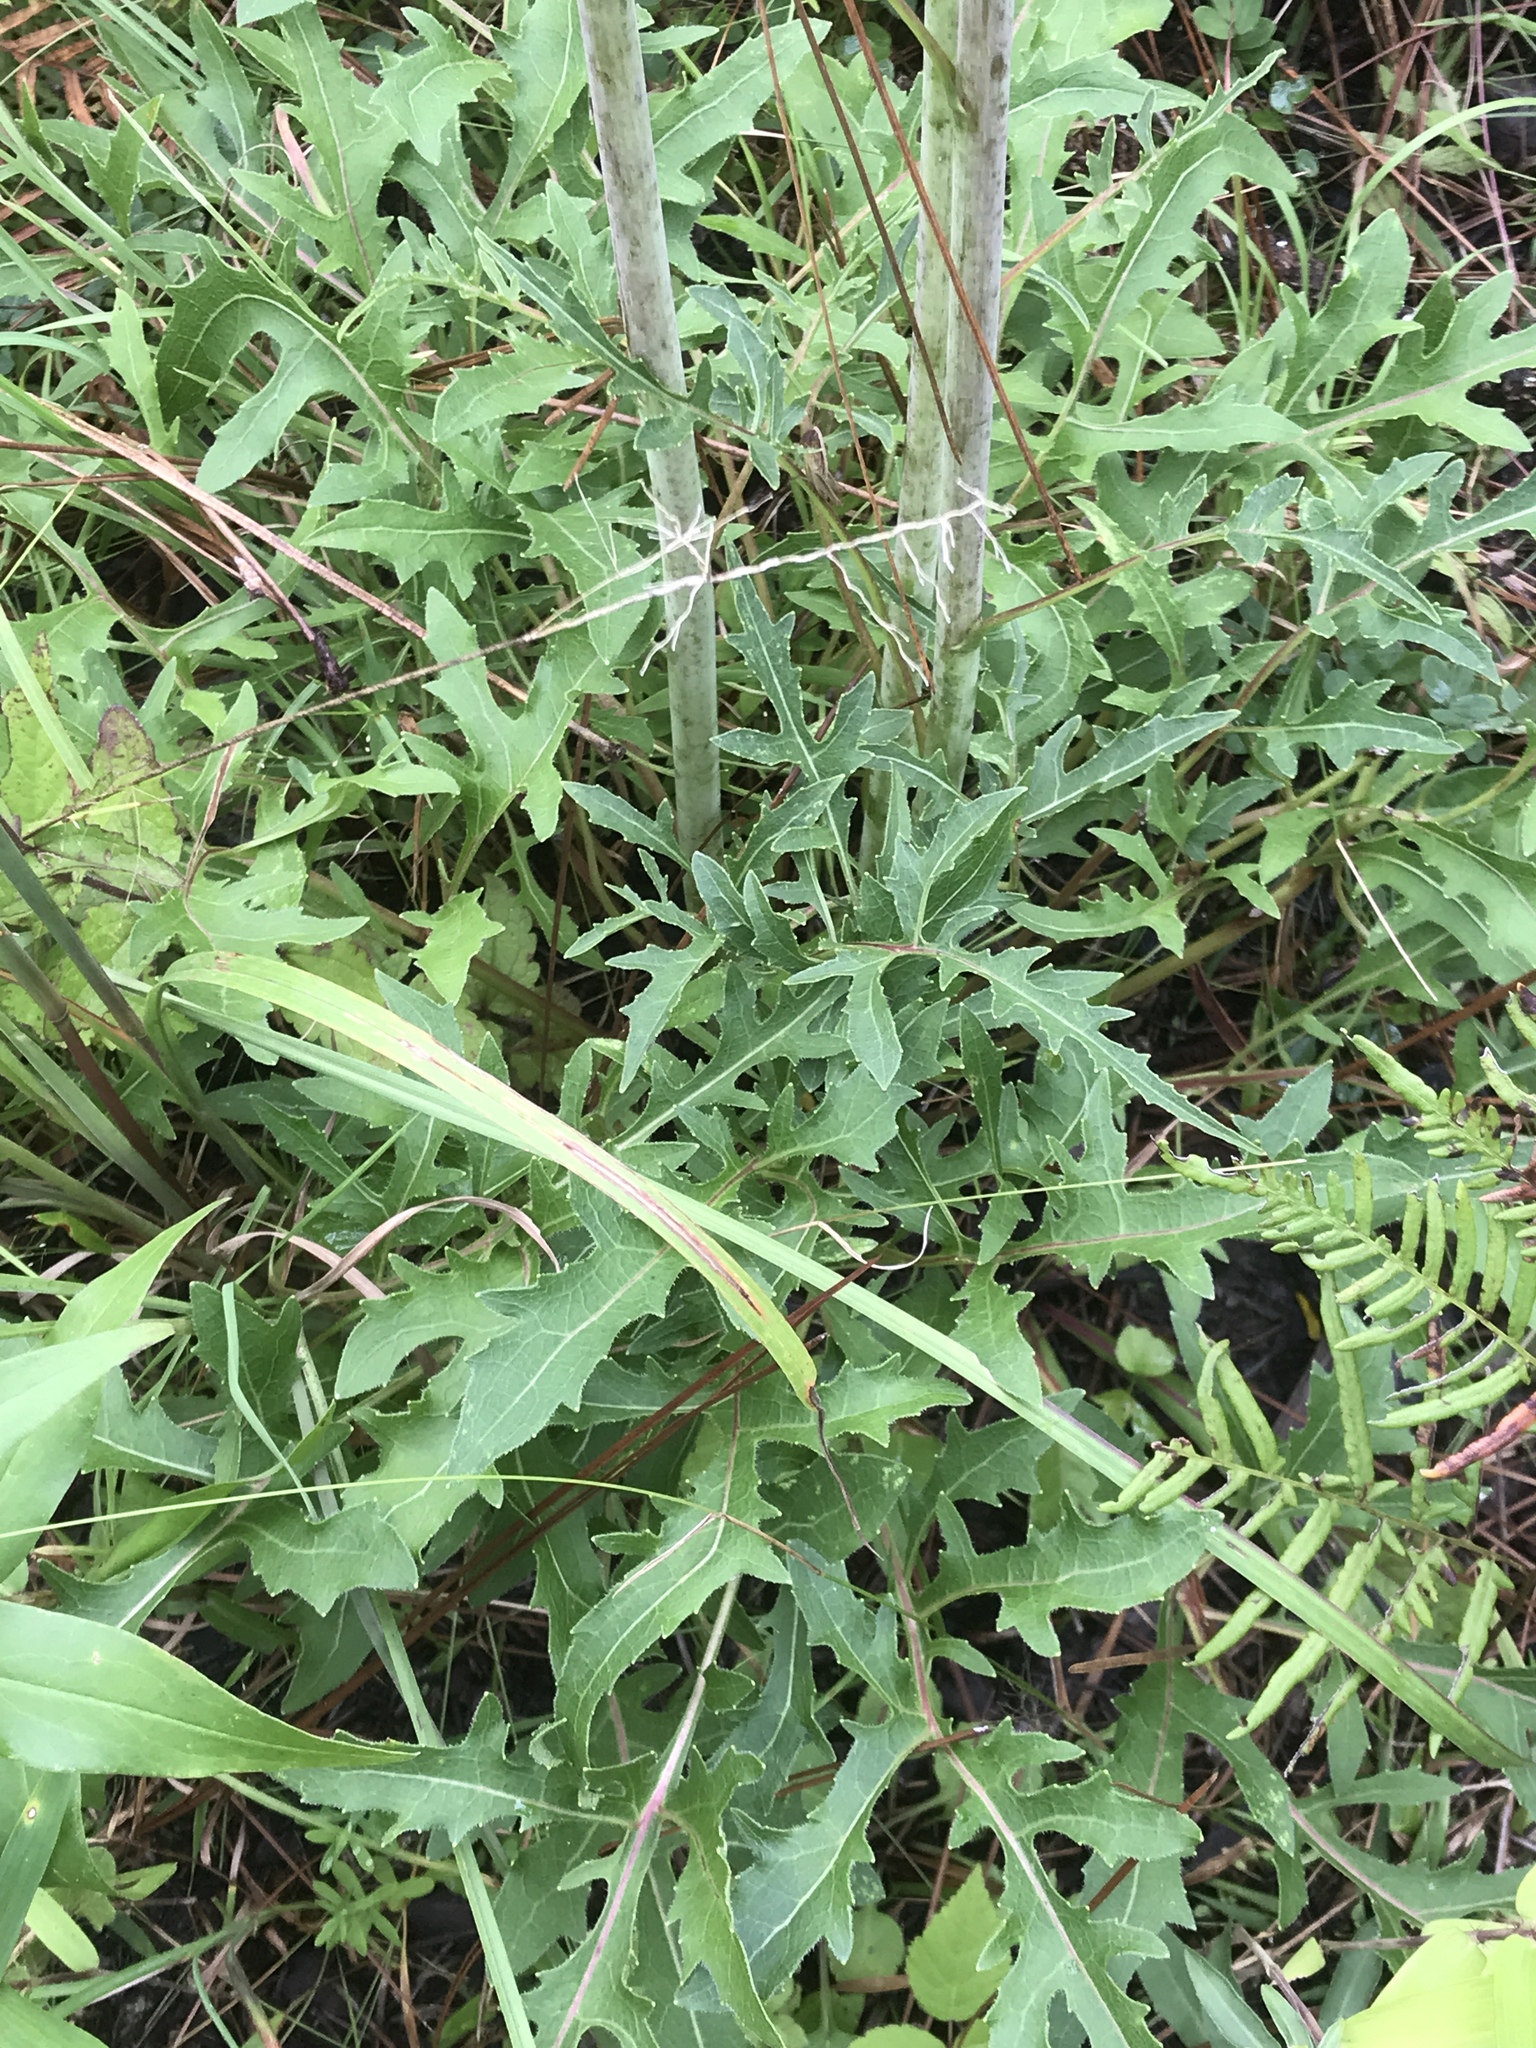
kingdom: Plantae
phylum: Tracheophyta
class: Magnoliopsida
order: Asterales
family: Asteraceae
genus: Silphium
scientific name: Silphium compositum
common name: Lesser basal-leaf rosinweed
